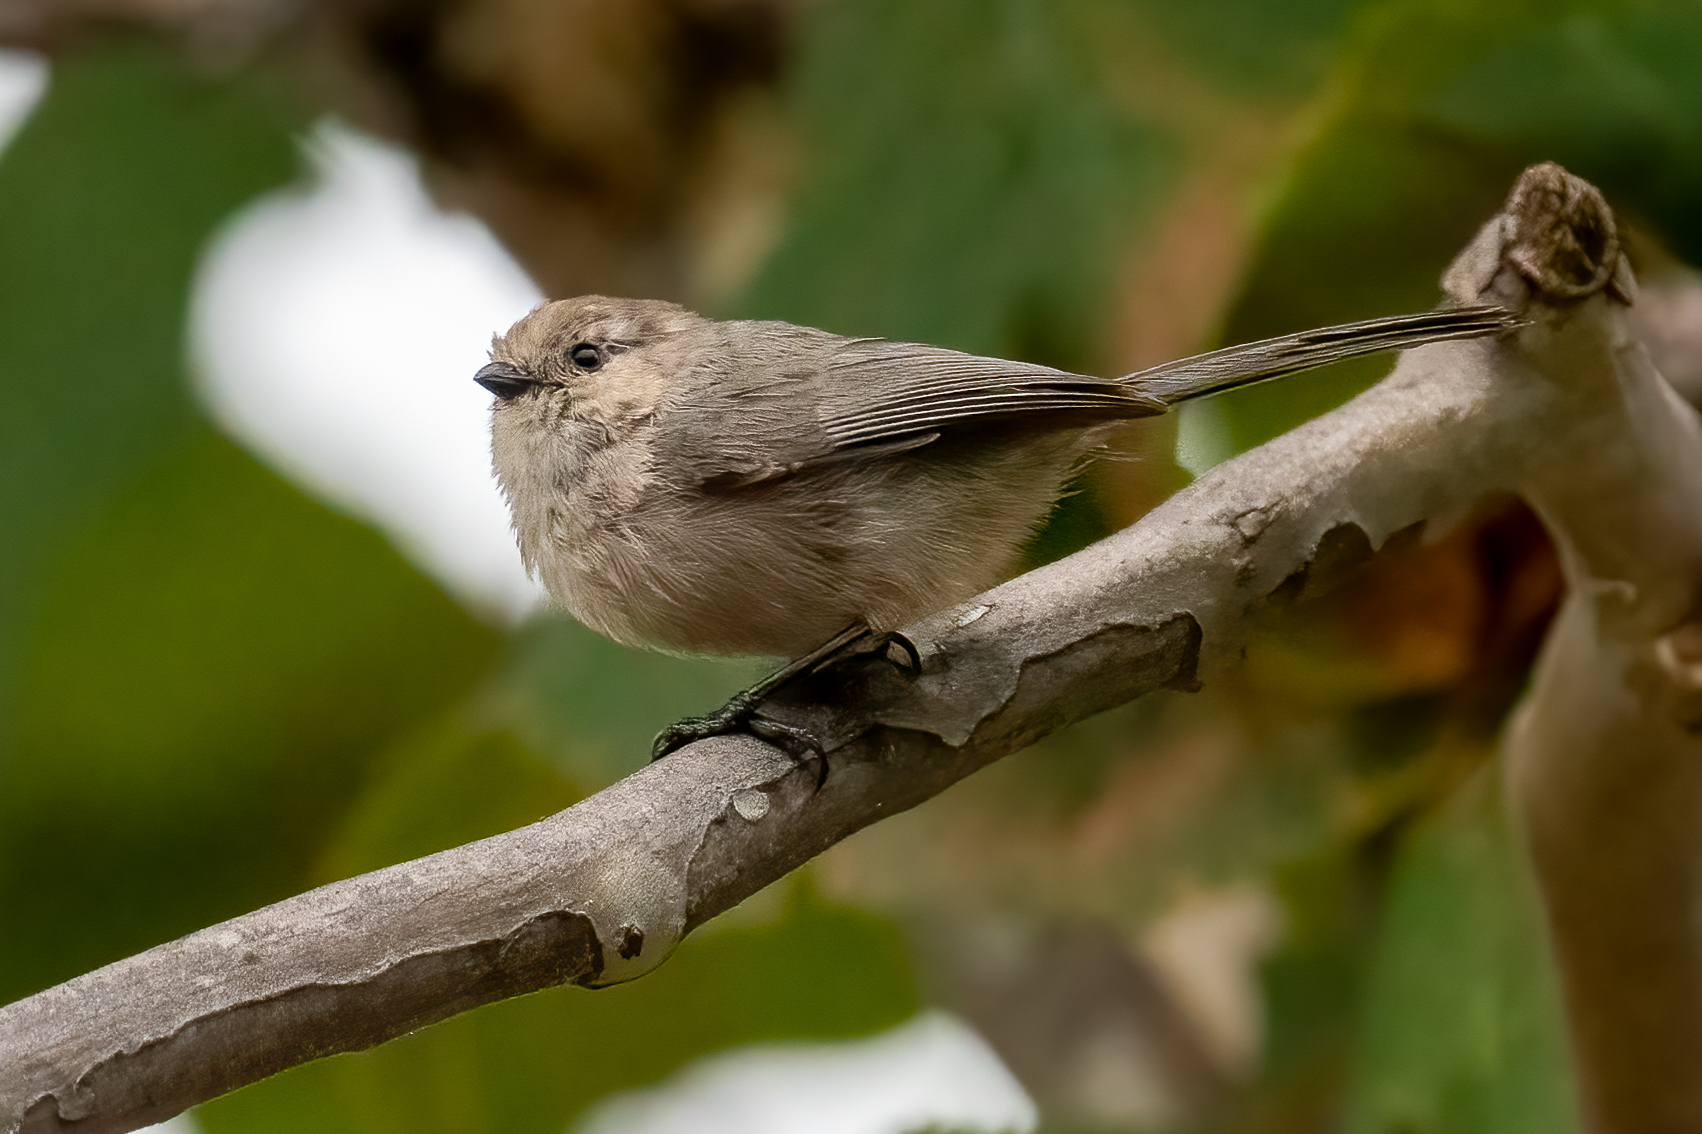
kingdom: Animalia
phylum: Chordata
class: Aves
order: Passeriformes
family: Aegithalidae
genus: Psaltriparus
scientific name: Psaltriparus minimus
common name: American bushtit
